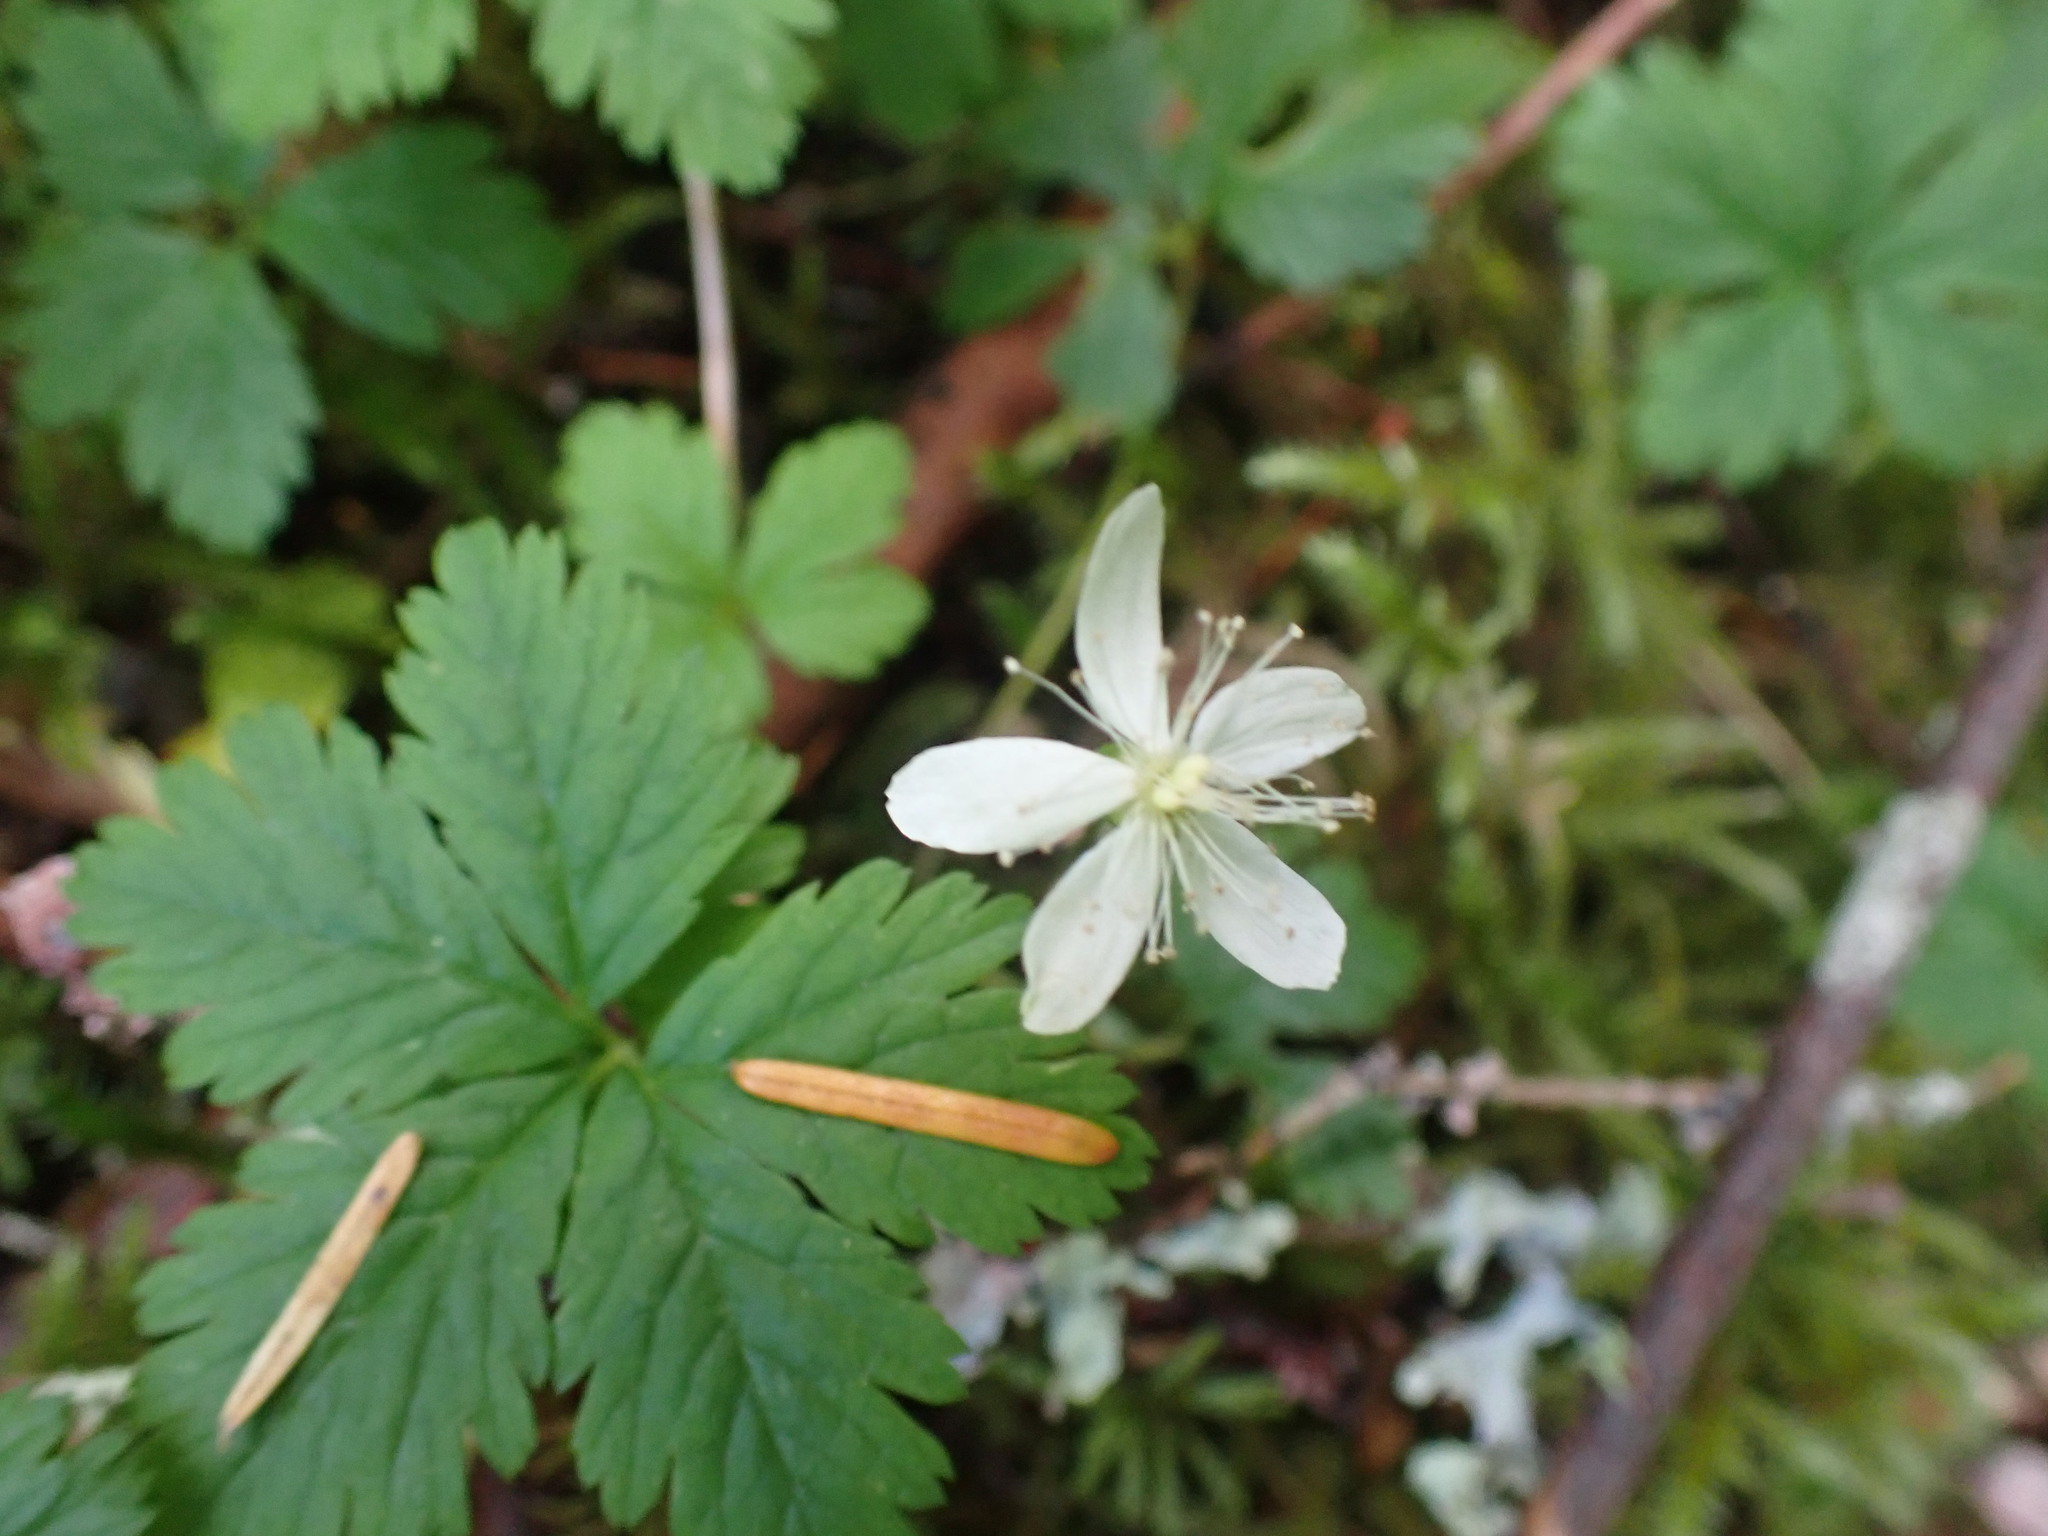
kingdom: Plantae
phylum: Tracheophyta
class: Magnoliopsida
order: Rosales
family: Rosaceae
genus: Rubus
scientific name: Rubus pedatus
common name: Creeping raspberry
